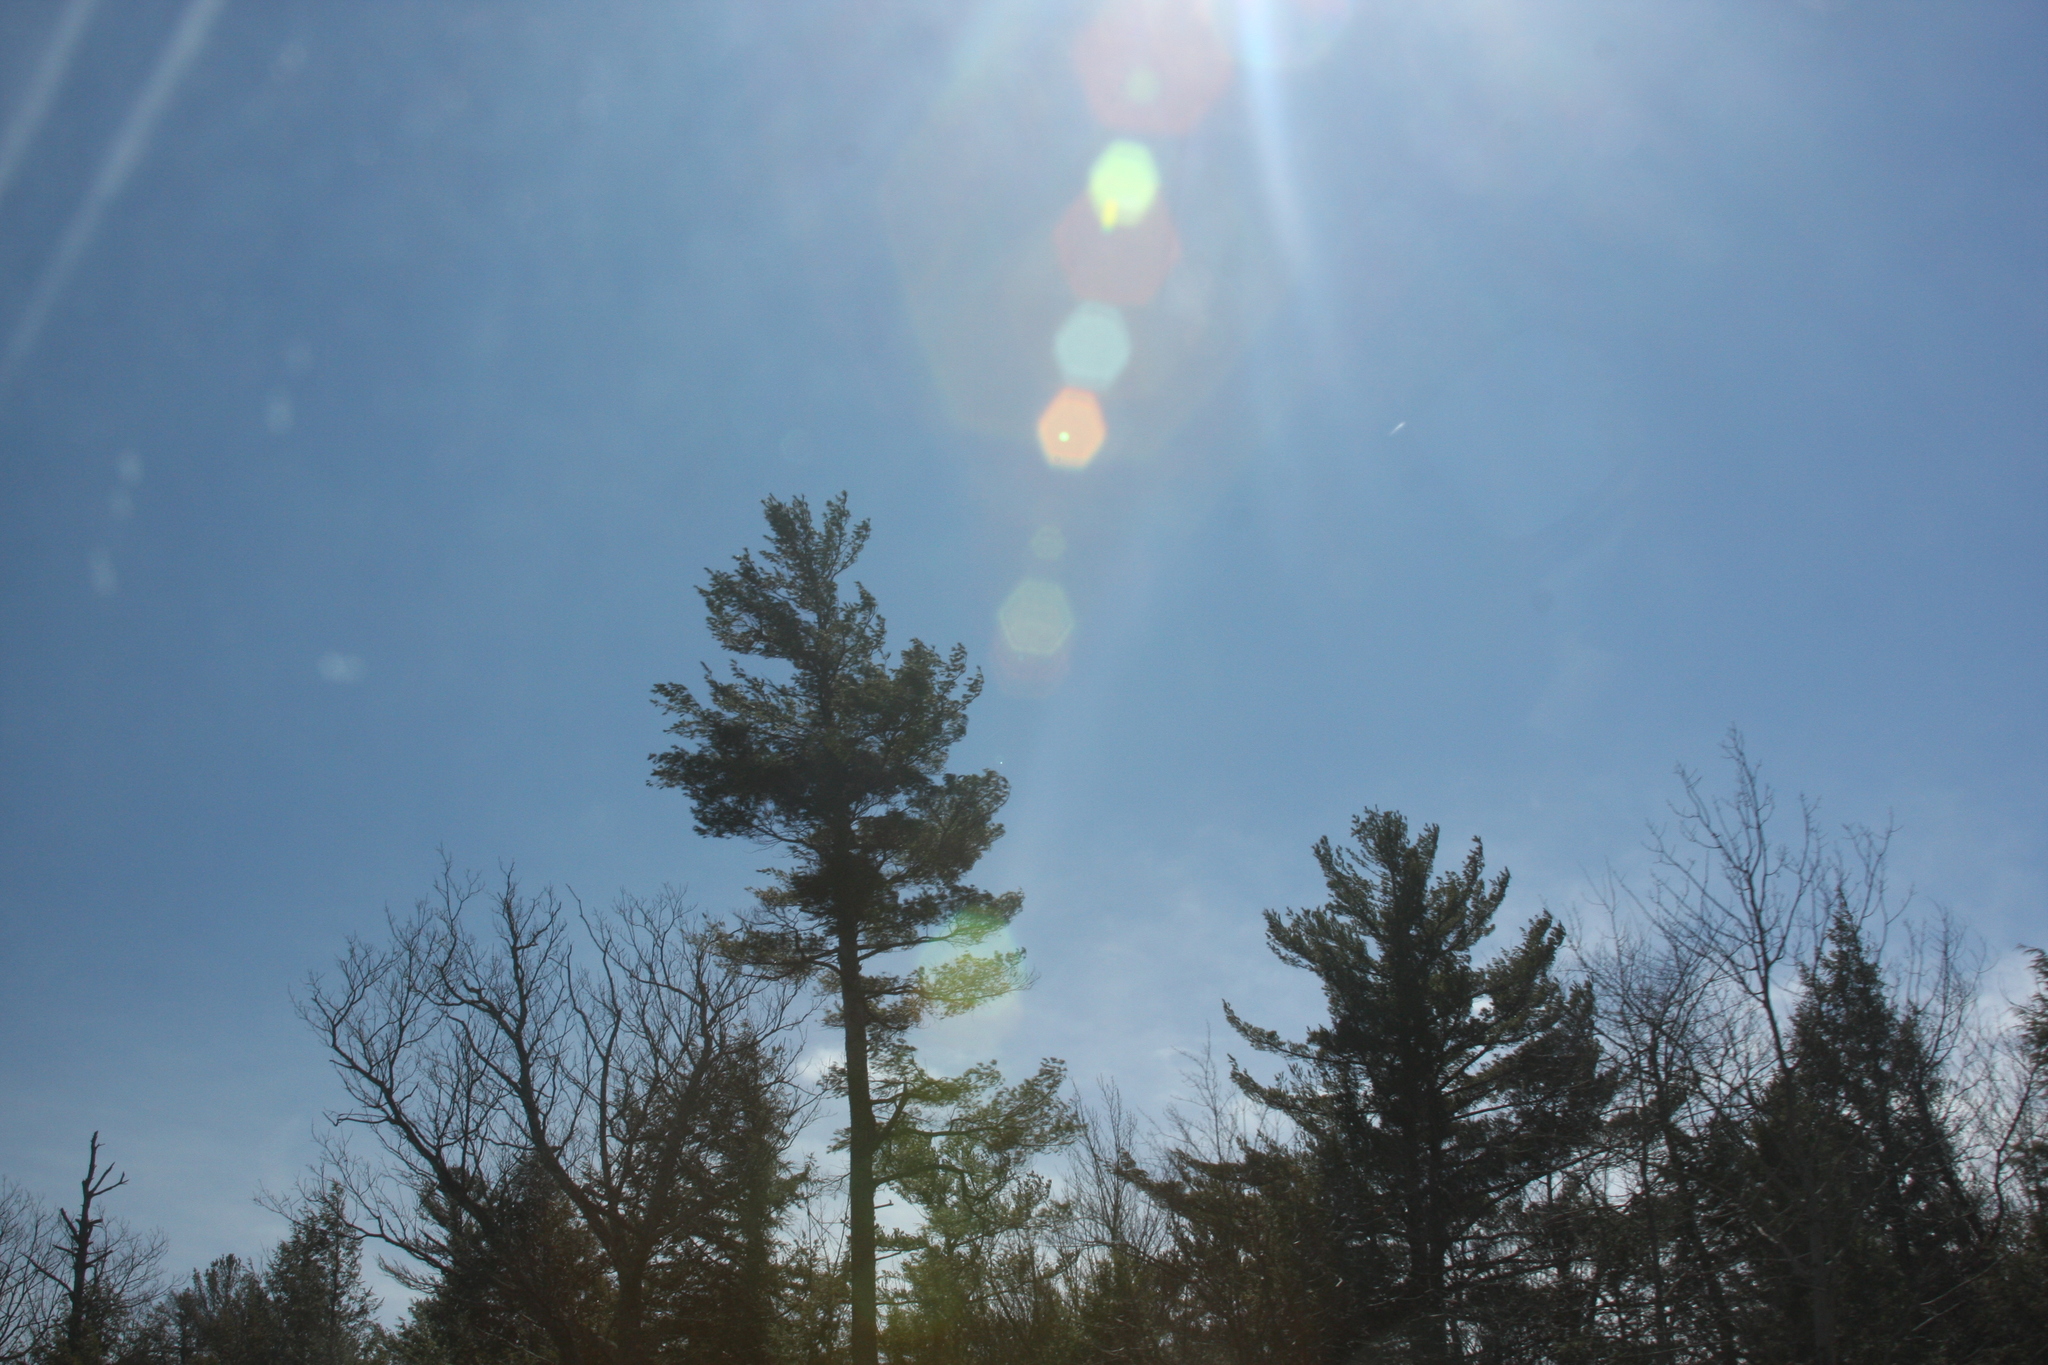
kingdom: Plantae
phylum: Tracheophyta
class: Pinopsida
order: Pinales
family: Pinaceae
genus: Pinus
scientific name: Pinus strobus
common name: Weymouth pine
